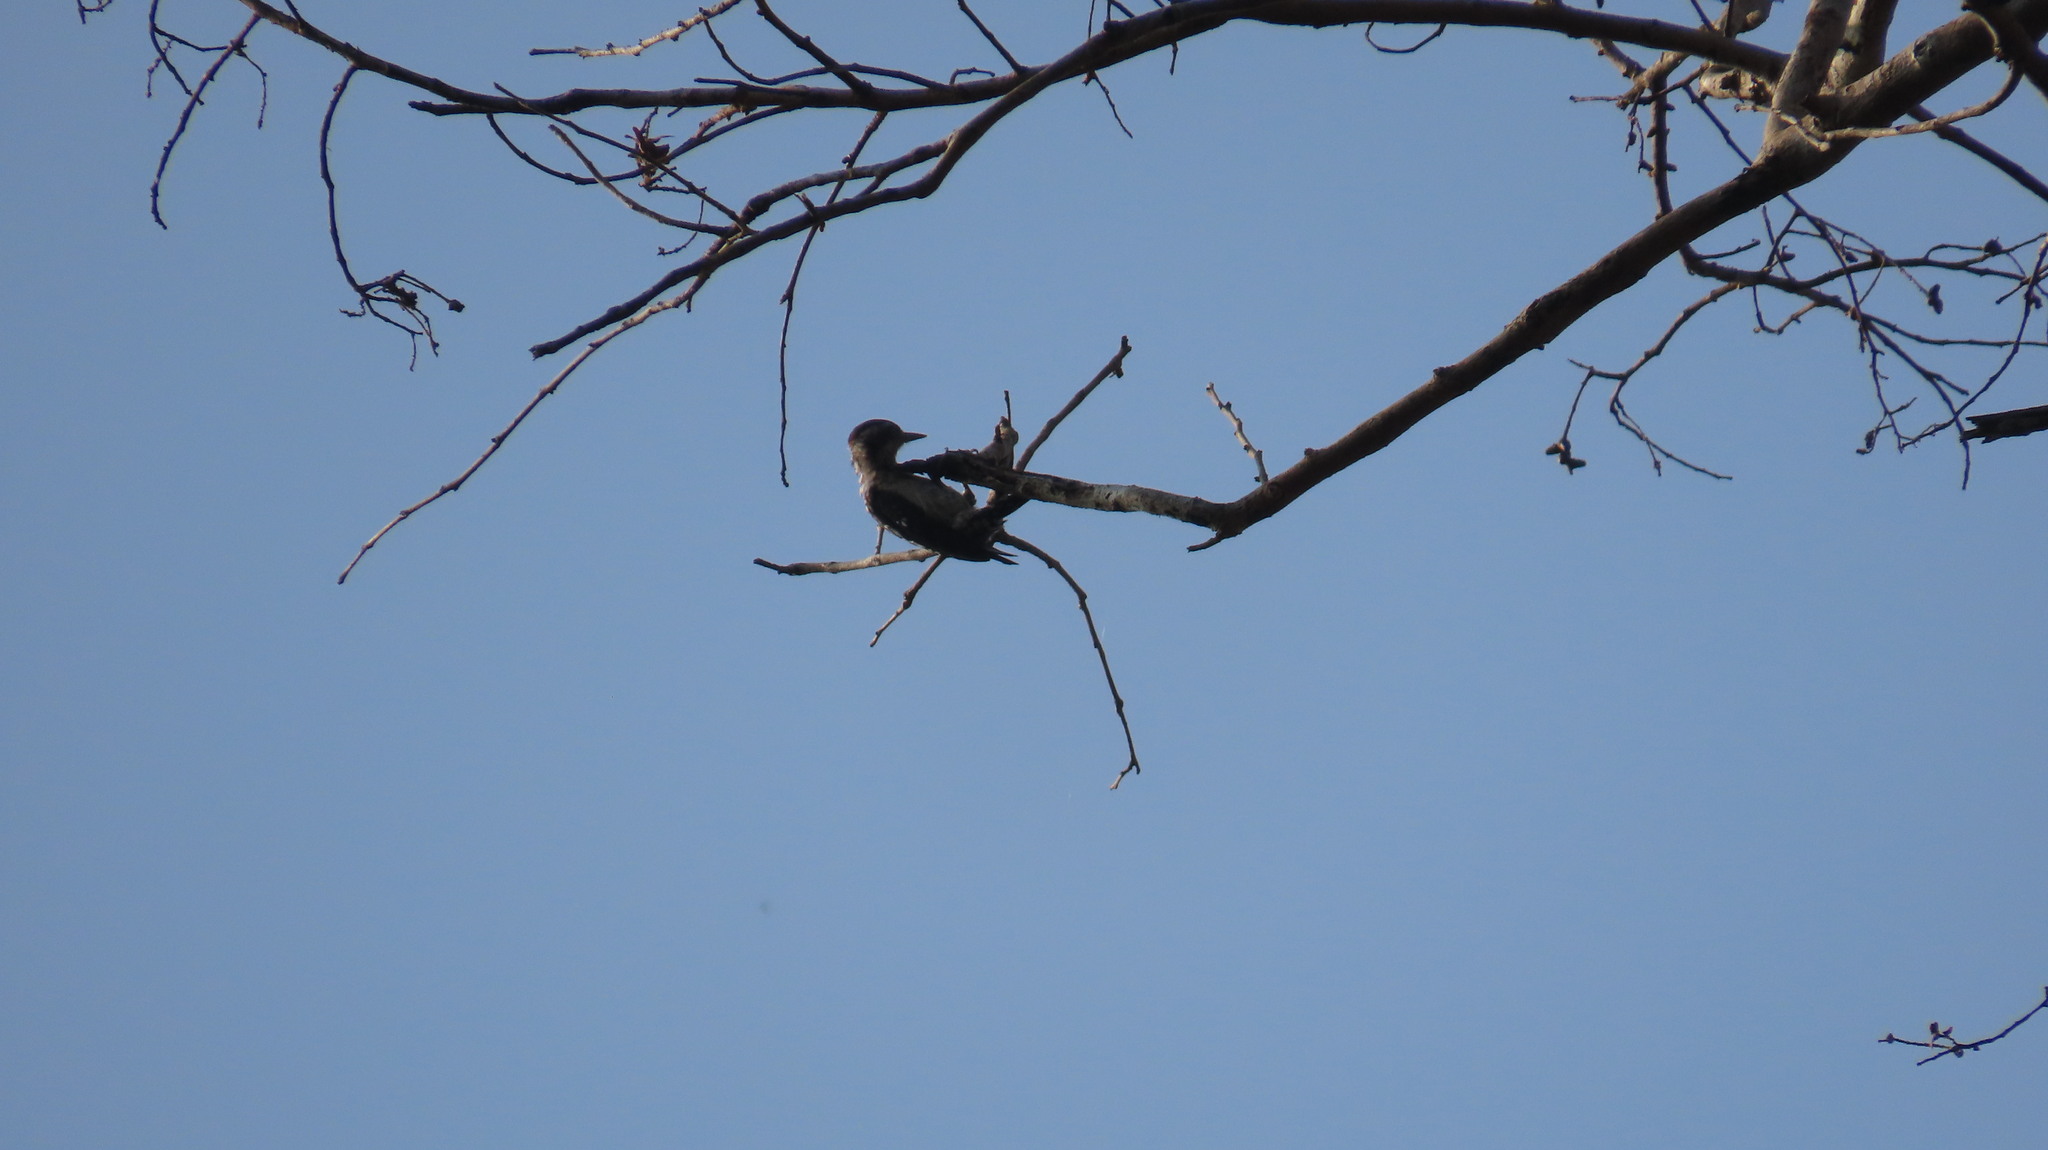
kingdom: Animalia
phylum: Chordata
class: Aves
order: Piciformes
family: Picidae
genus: Yungipicus
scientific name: Yungipicus nanus
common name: Brown-capped pygmy woodpecker
